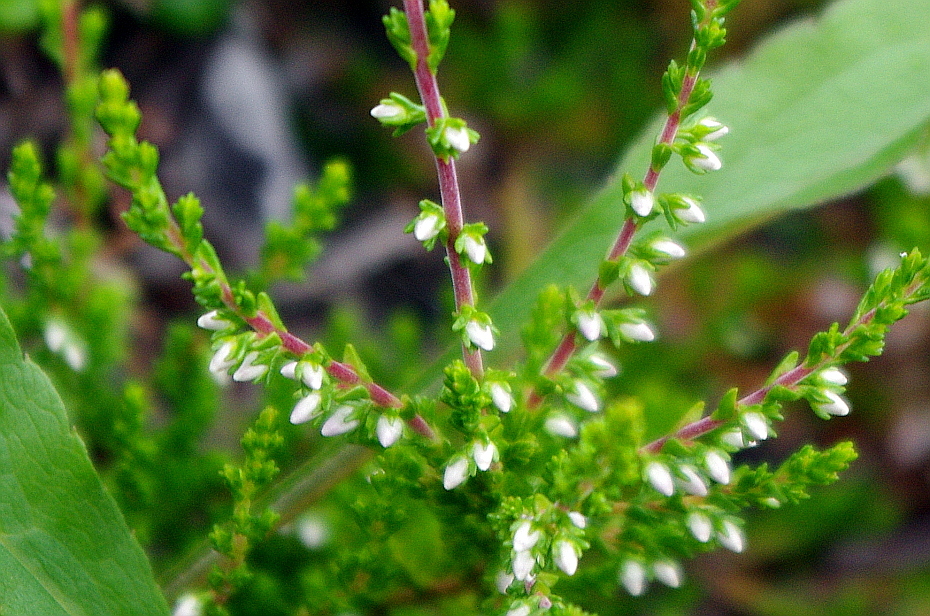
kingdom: Plantae
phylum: Tracheophyta
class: Magnoliopsida
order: Ericales
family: Ericaceae
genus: Calluna
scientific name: Calluna vulgaris
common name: Heather
